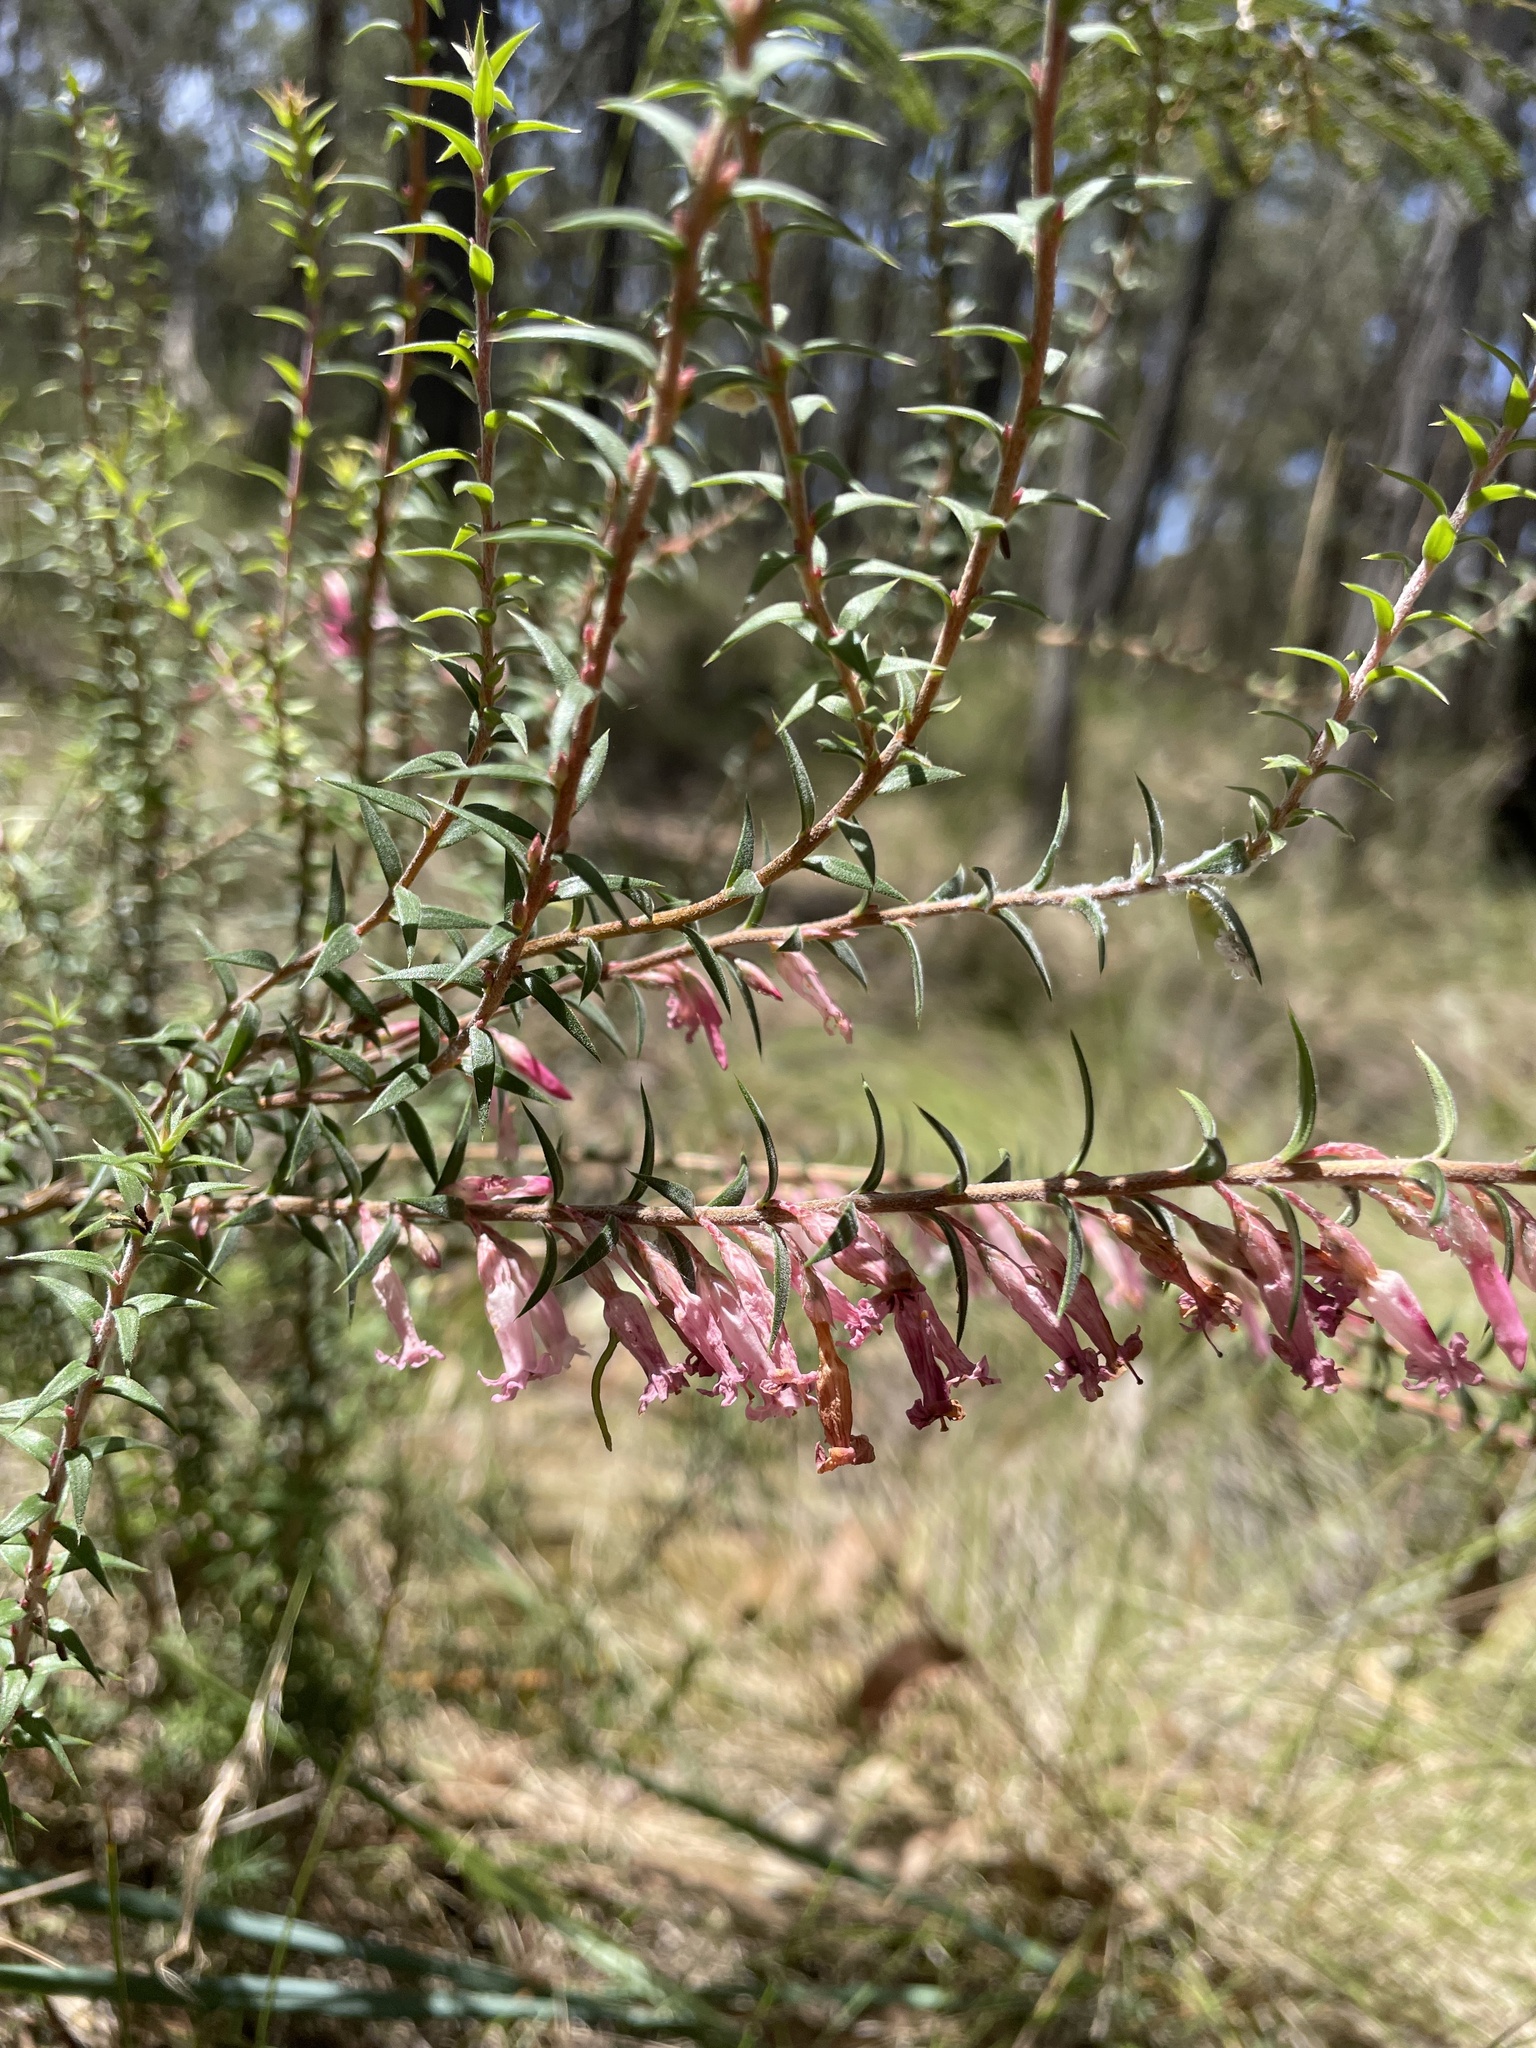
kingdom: Plantae
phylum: Tracheophyta
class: Magnoliopsida
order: Ericales
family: Ericaceae
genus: Epacris
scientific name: Epacris impressa
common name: Common-heath
